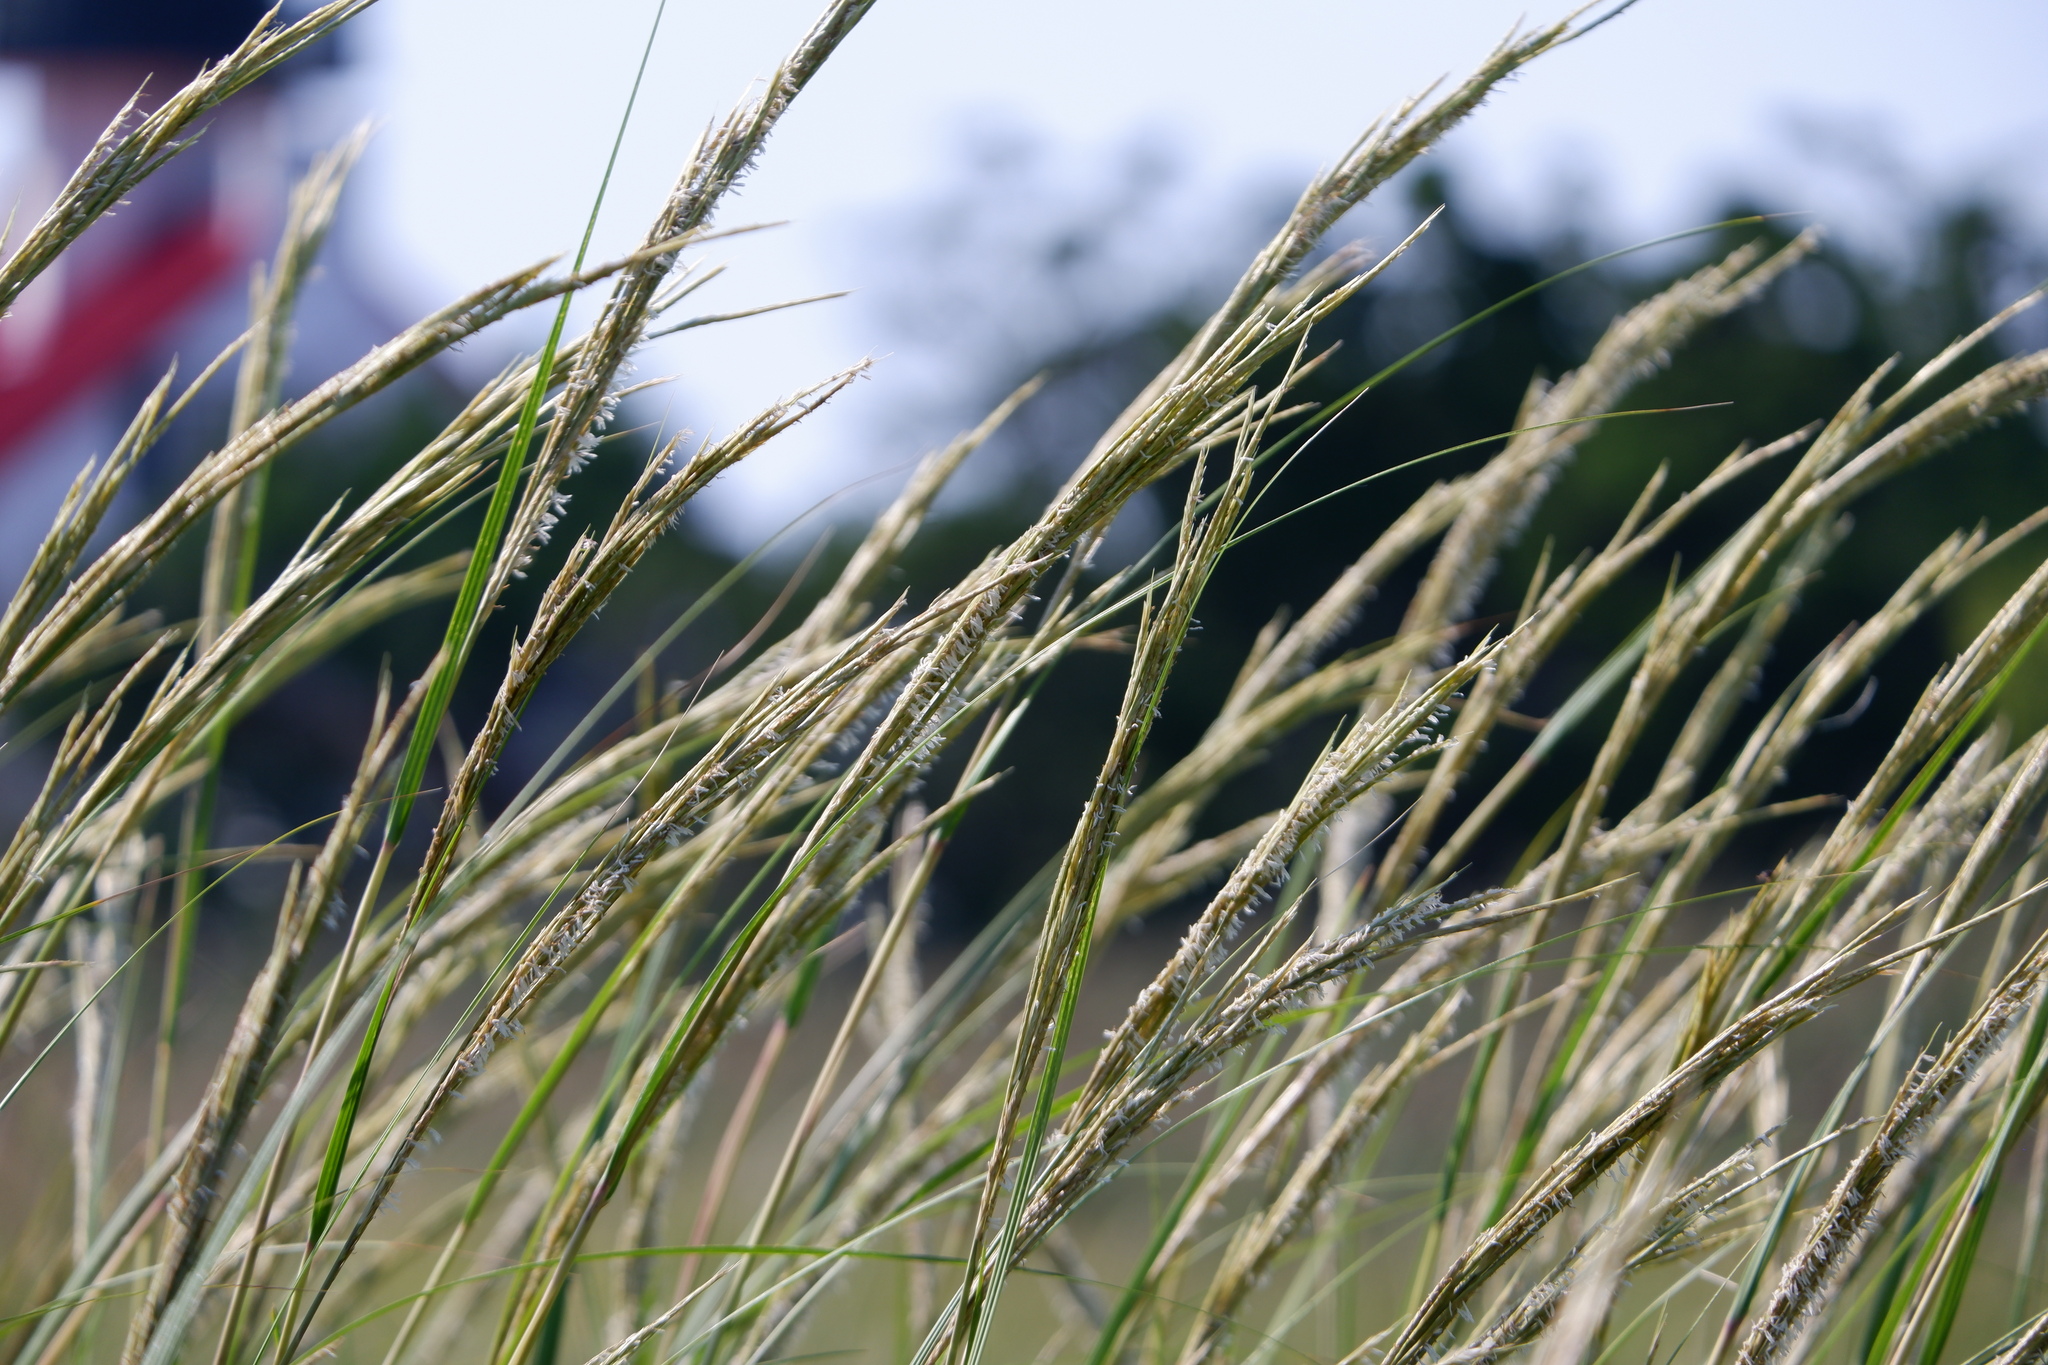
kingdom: Plantae
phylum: Tracheophyta
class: Liliopsida
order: Poales
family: Poaceae
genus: Sporobolus
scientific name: Sporobolus alterniflorus
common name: Atlantic cordgrass
